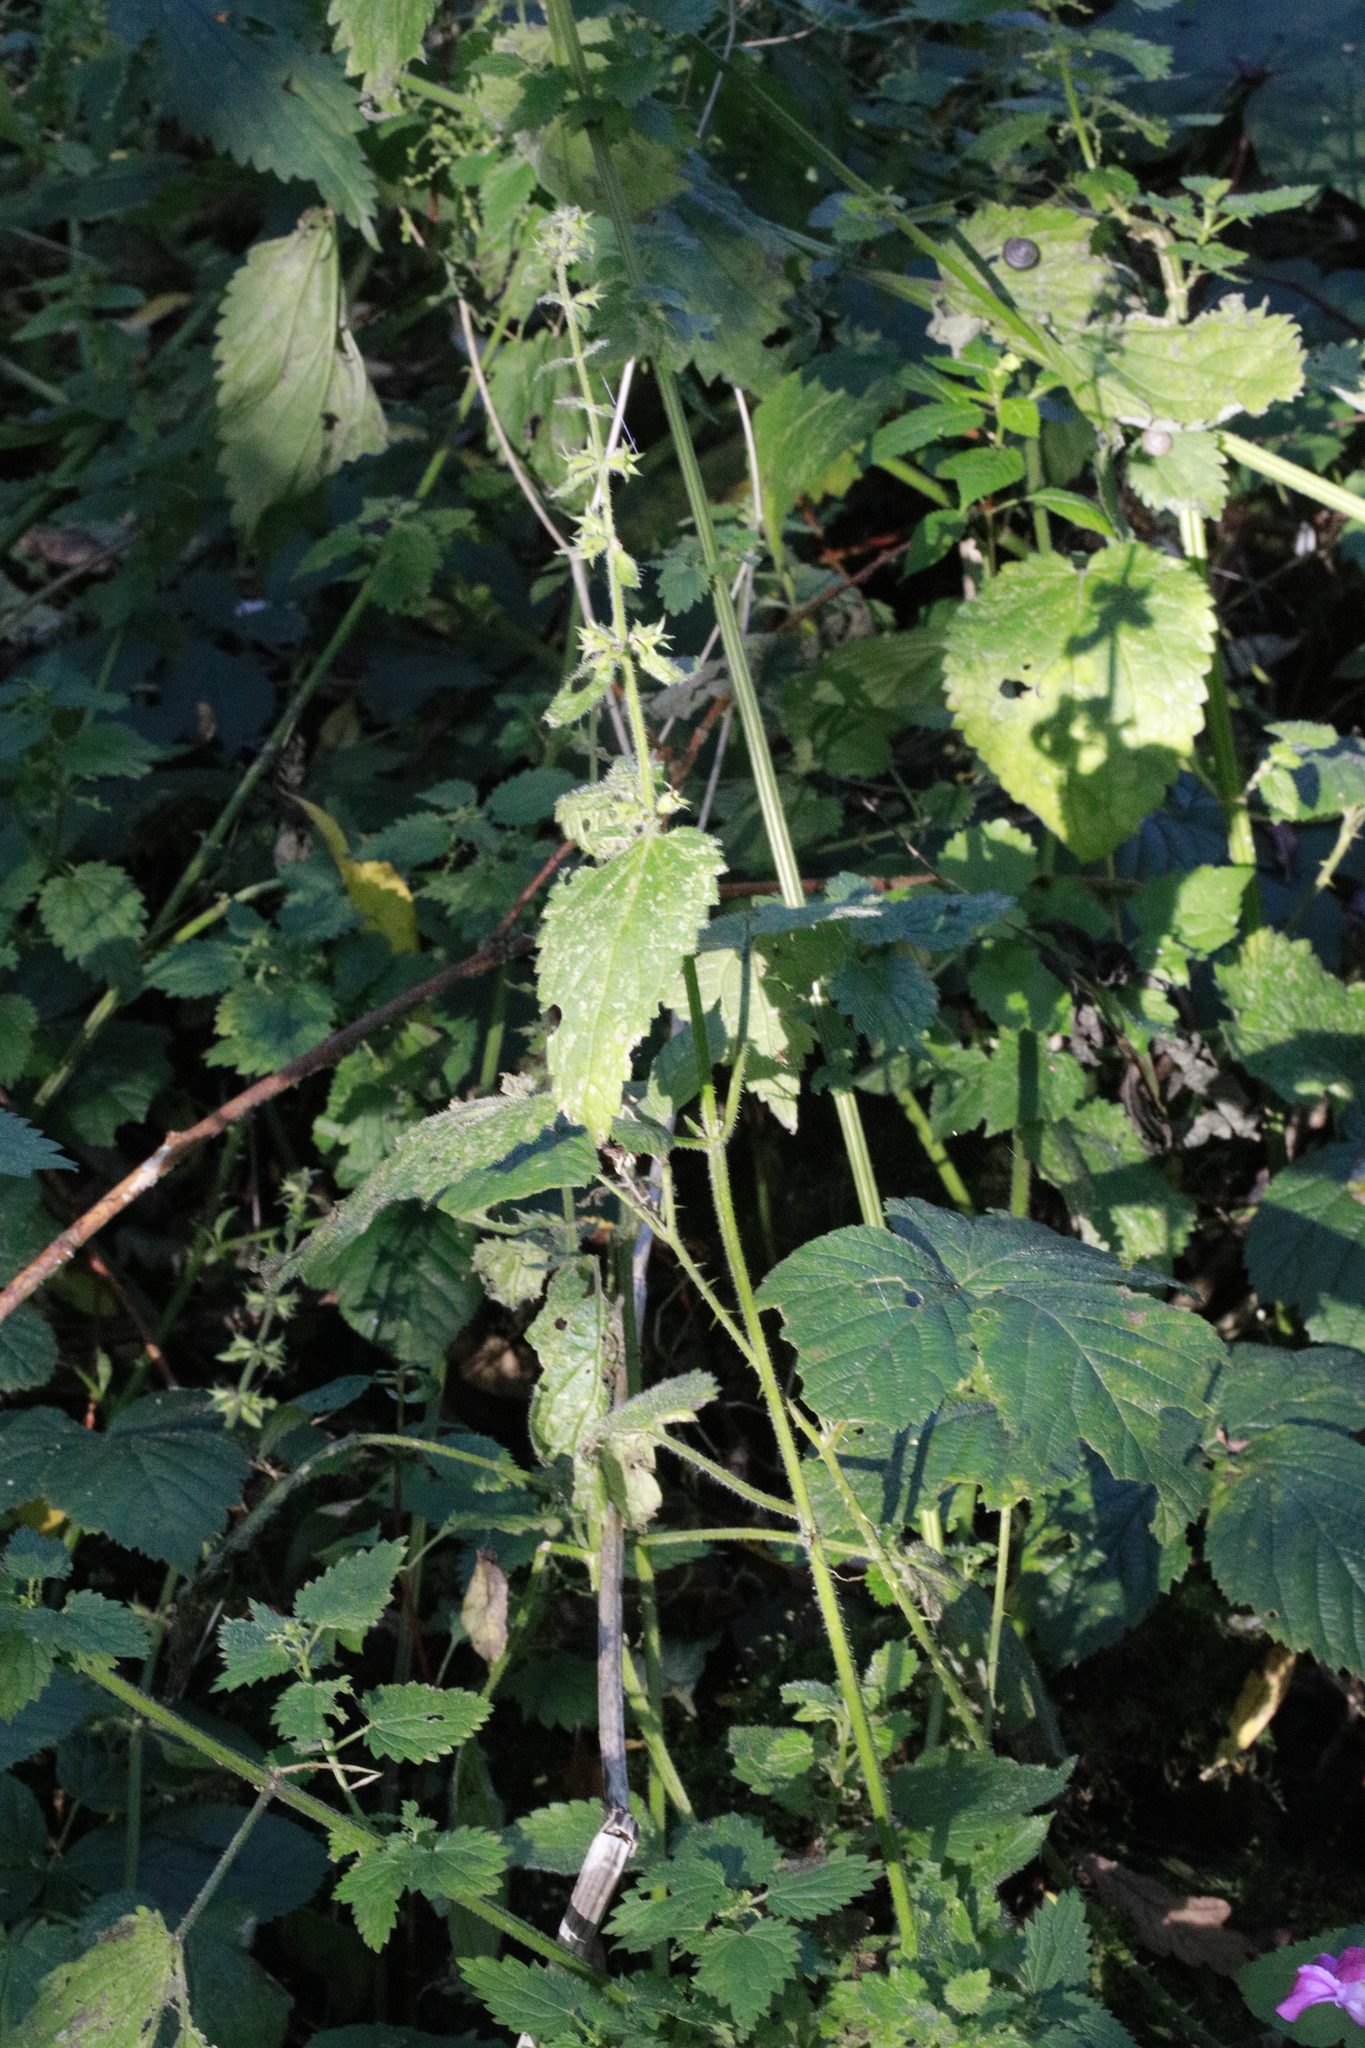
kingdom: Plantae
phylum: Tracheophyta
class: Magnoliopsida
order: Lamiales
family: Lamiaceae
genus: Stachys
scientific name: Stachys sylvatica
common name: Hedge woundwort
